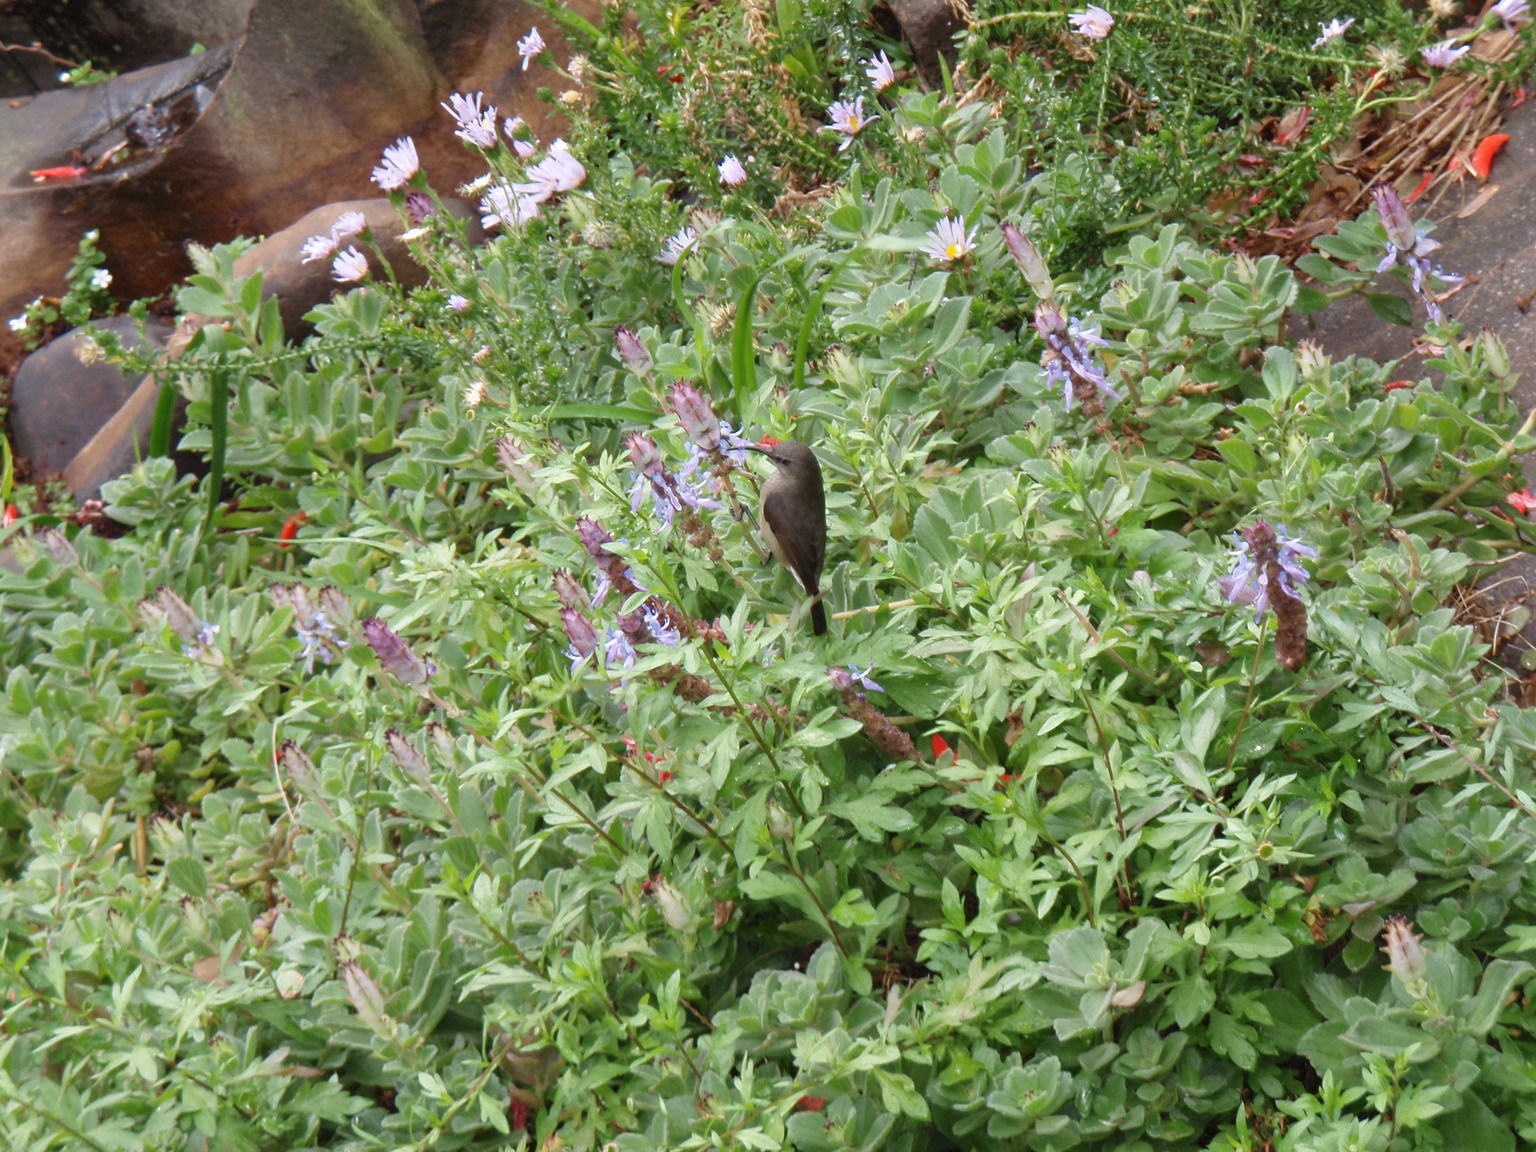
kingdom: Animalia
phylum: Chordata
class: Aves
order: Passeriformes
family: Nectariniidae
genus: Cinnyris
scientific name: Cinnyris afer
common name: Greater double-collared sunbird
